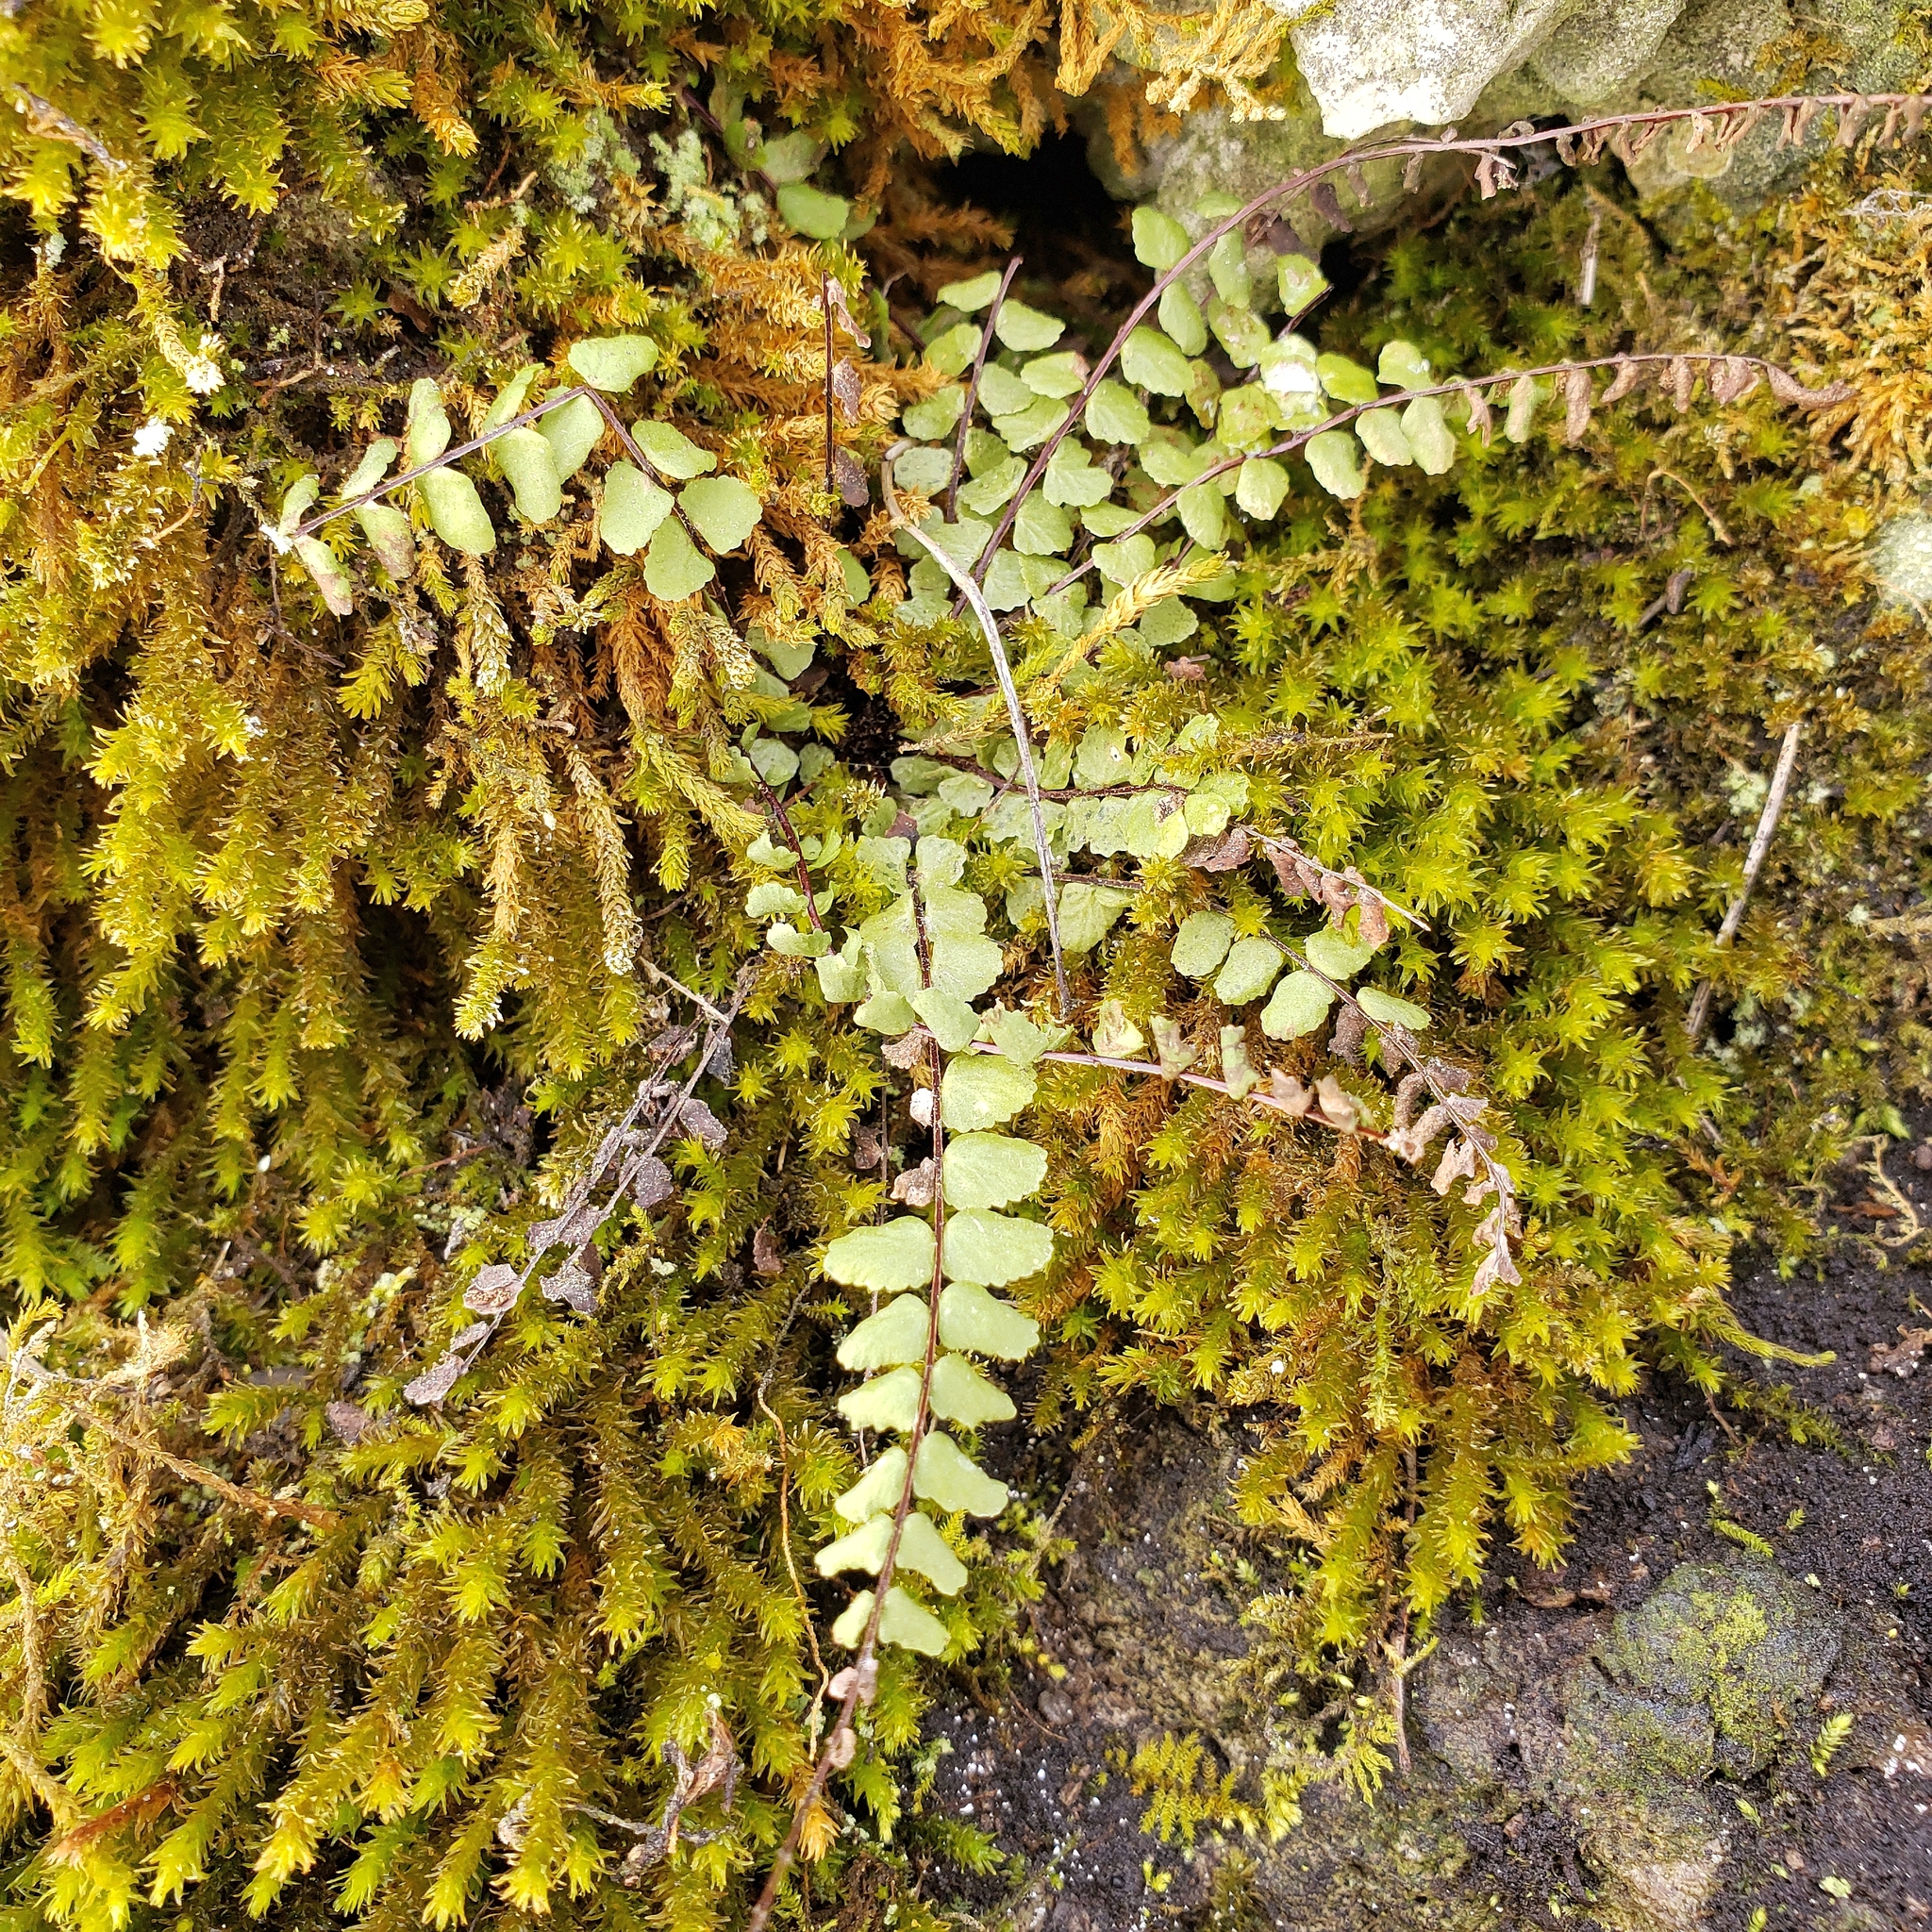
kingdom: Plantae
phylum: Tracheophyta
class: Polypodiopsida
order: Polypodiales
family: Aspleniaceae
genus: Asplenium
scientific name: Asplenium trichomanes
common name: Maidenhair spleenwort
